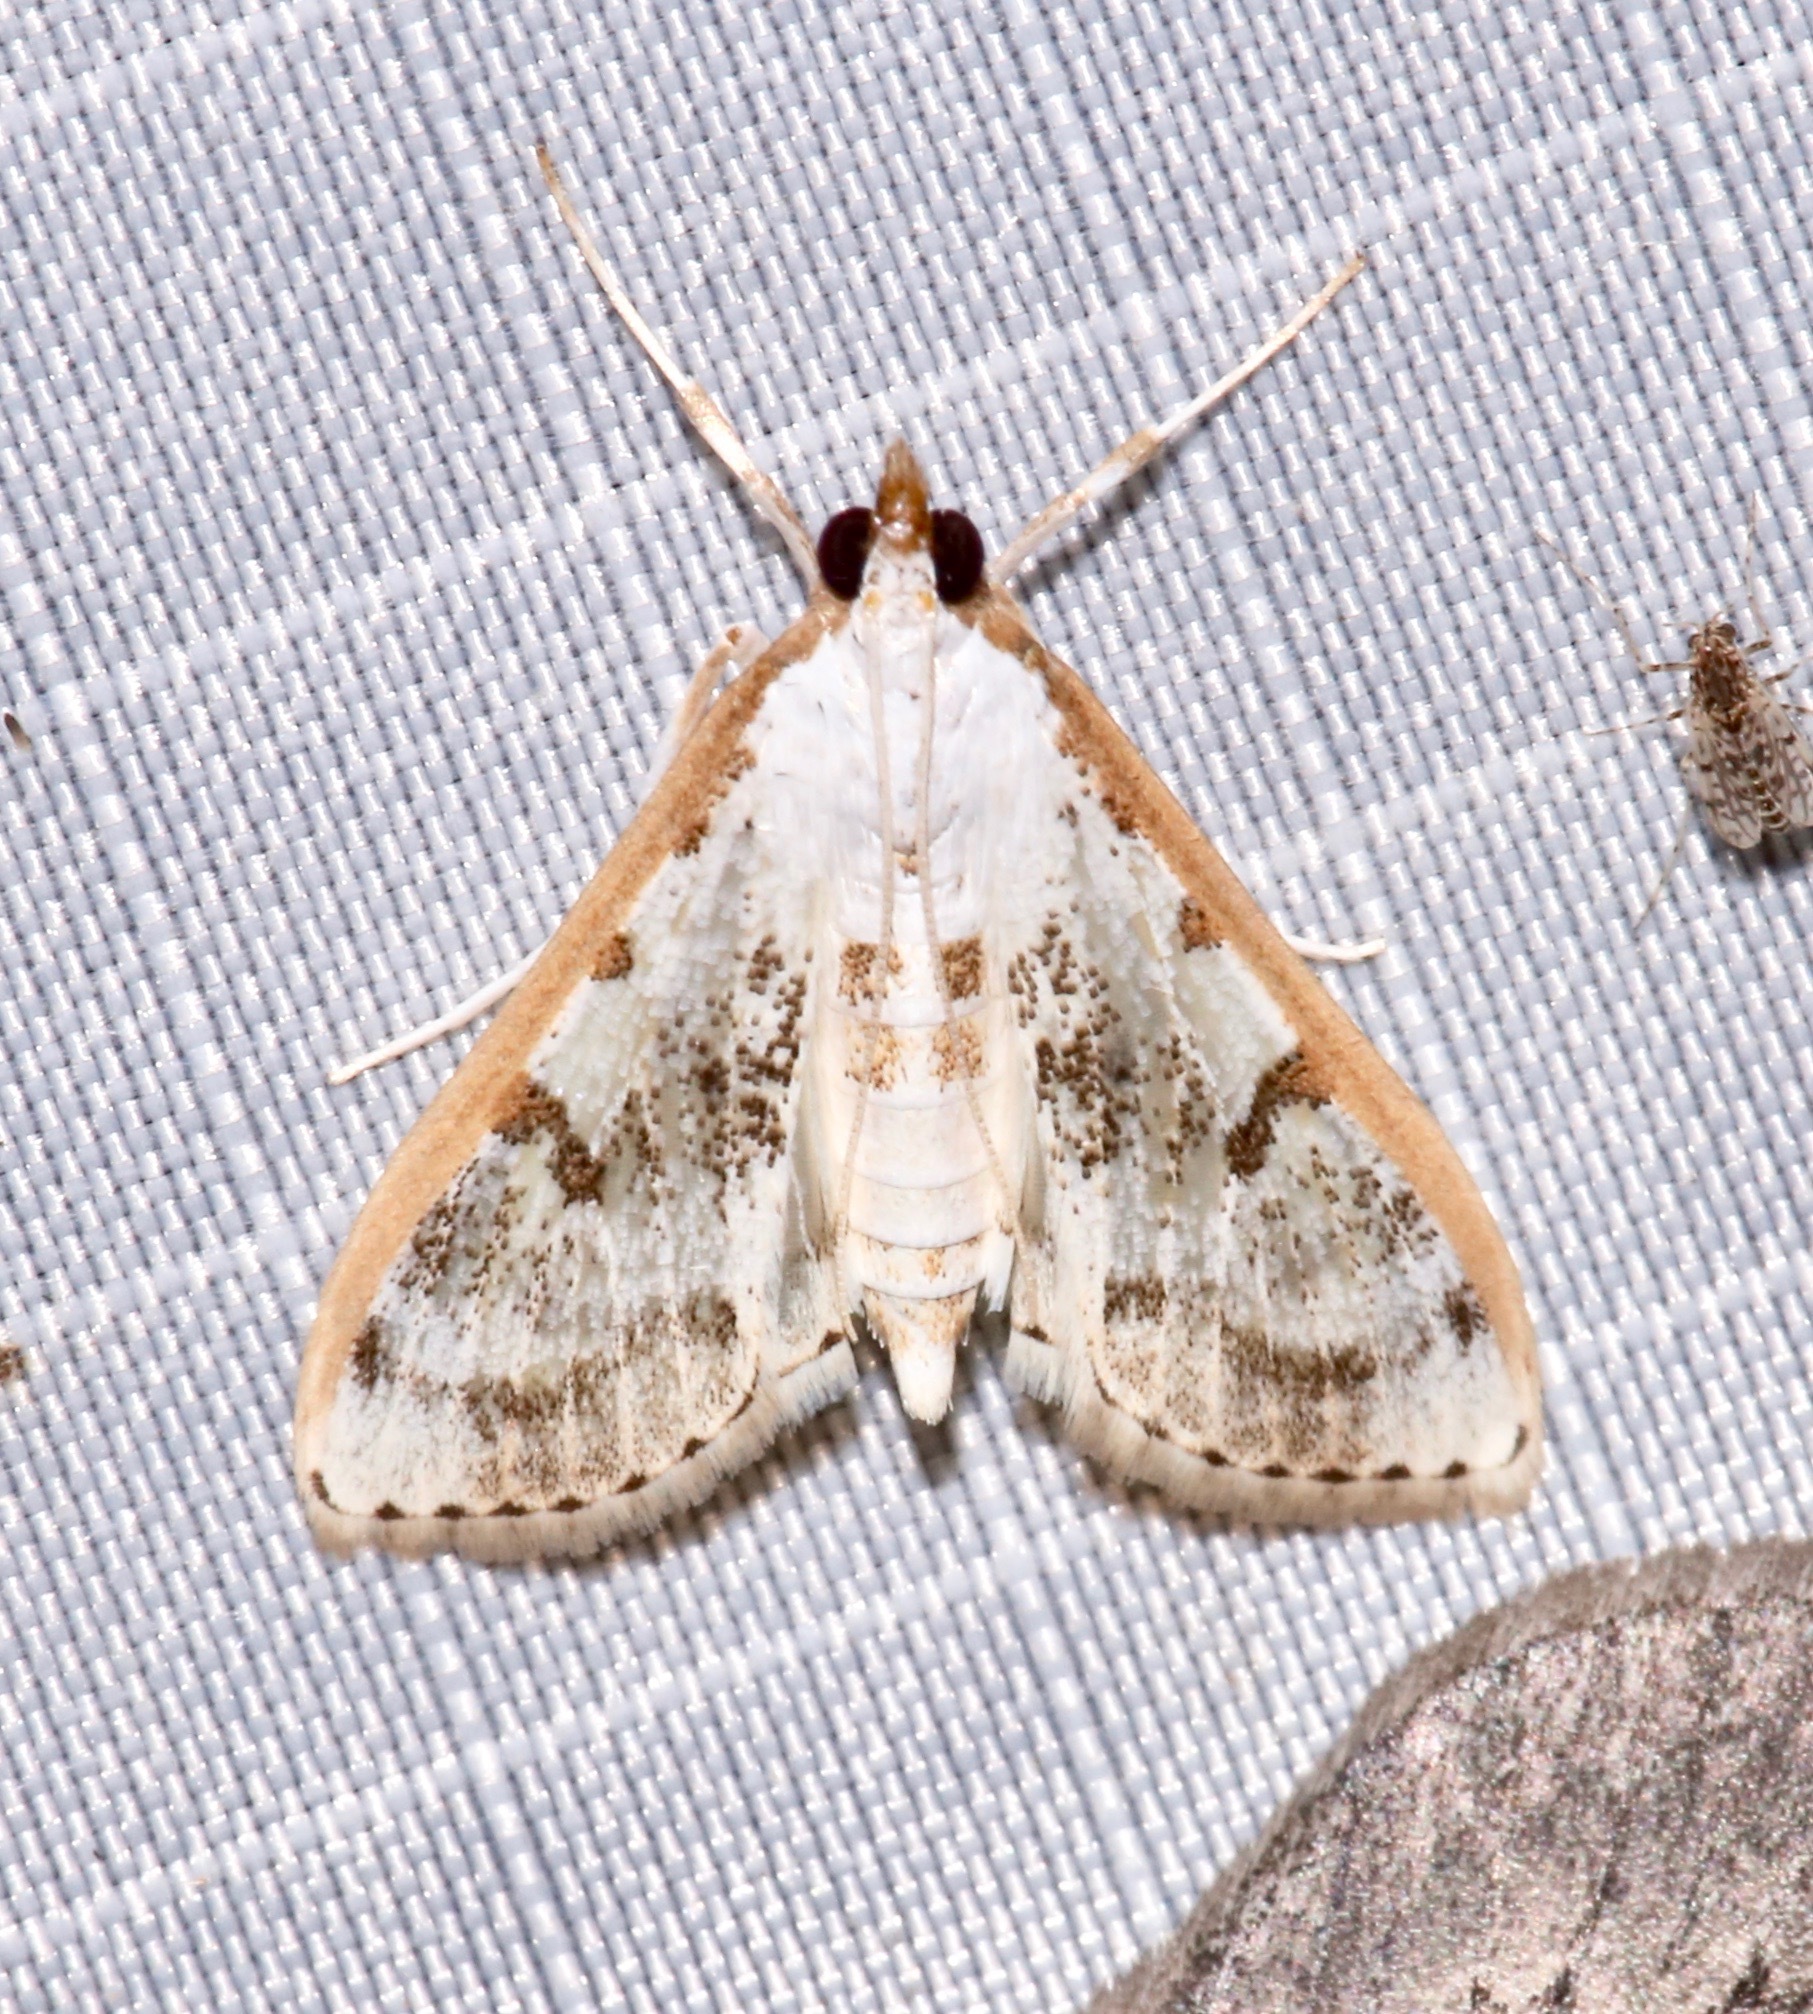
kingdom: Animalia
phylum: Arthropoda
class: Insecta
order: Lepidoptera
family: Crambidae
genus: Palpita
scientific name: Palpita gracilalis
